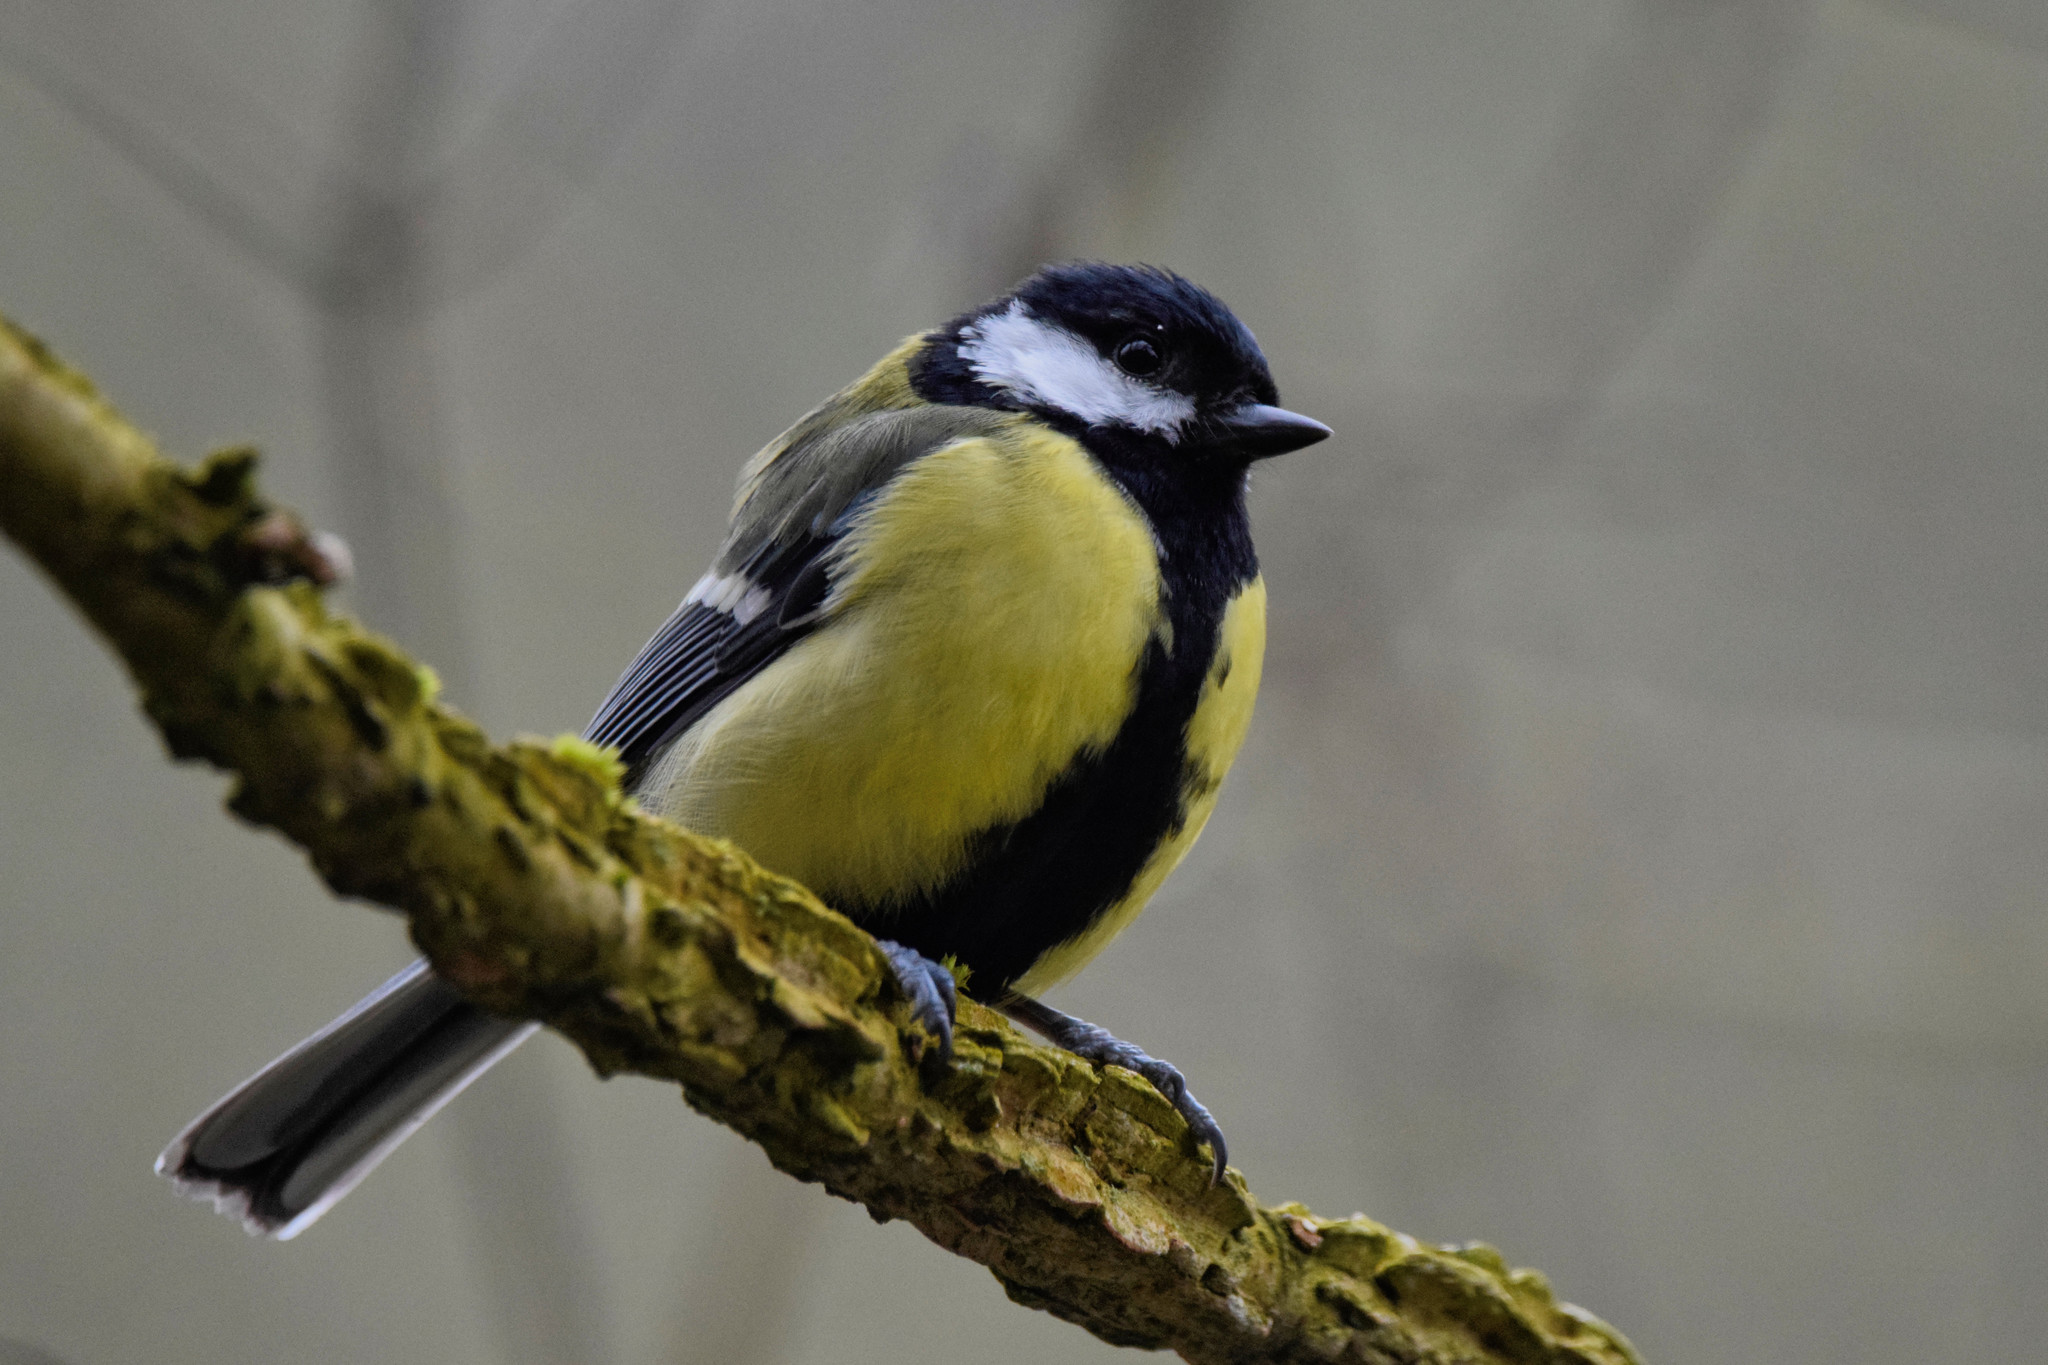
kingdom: Animalia
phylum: Chordata
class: Aves
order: Passeriformes
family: Paridae
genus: Parus
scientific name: Parus major
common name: Great tit
